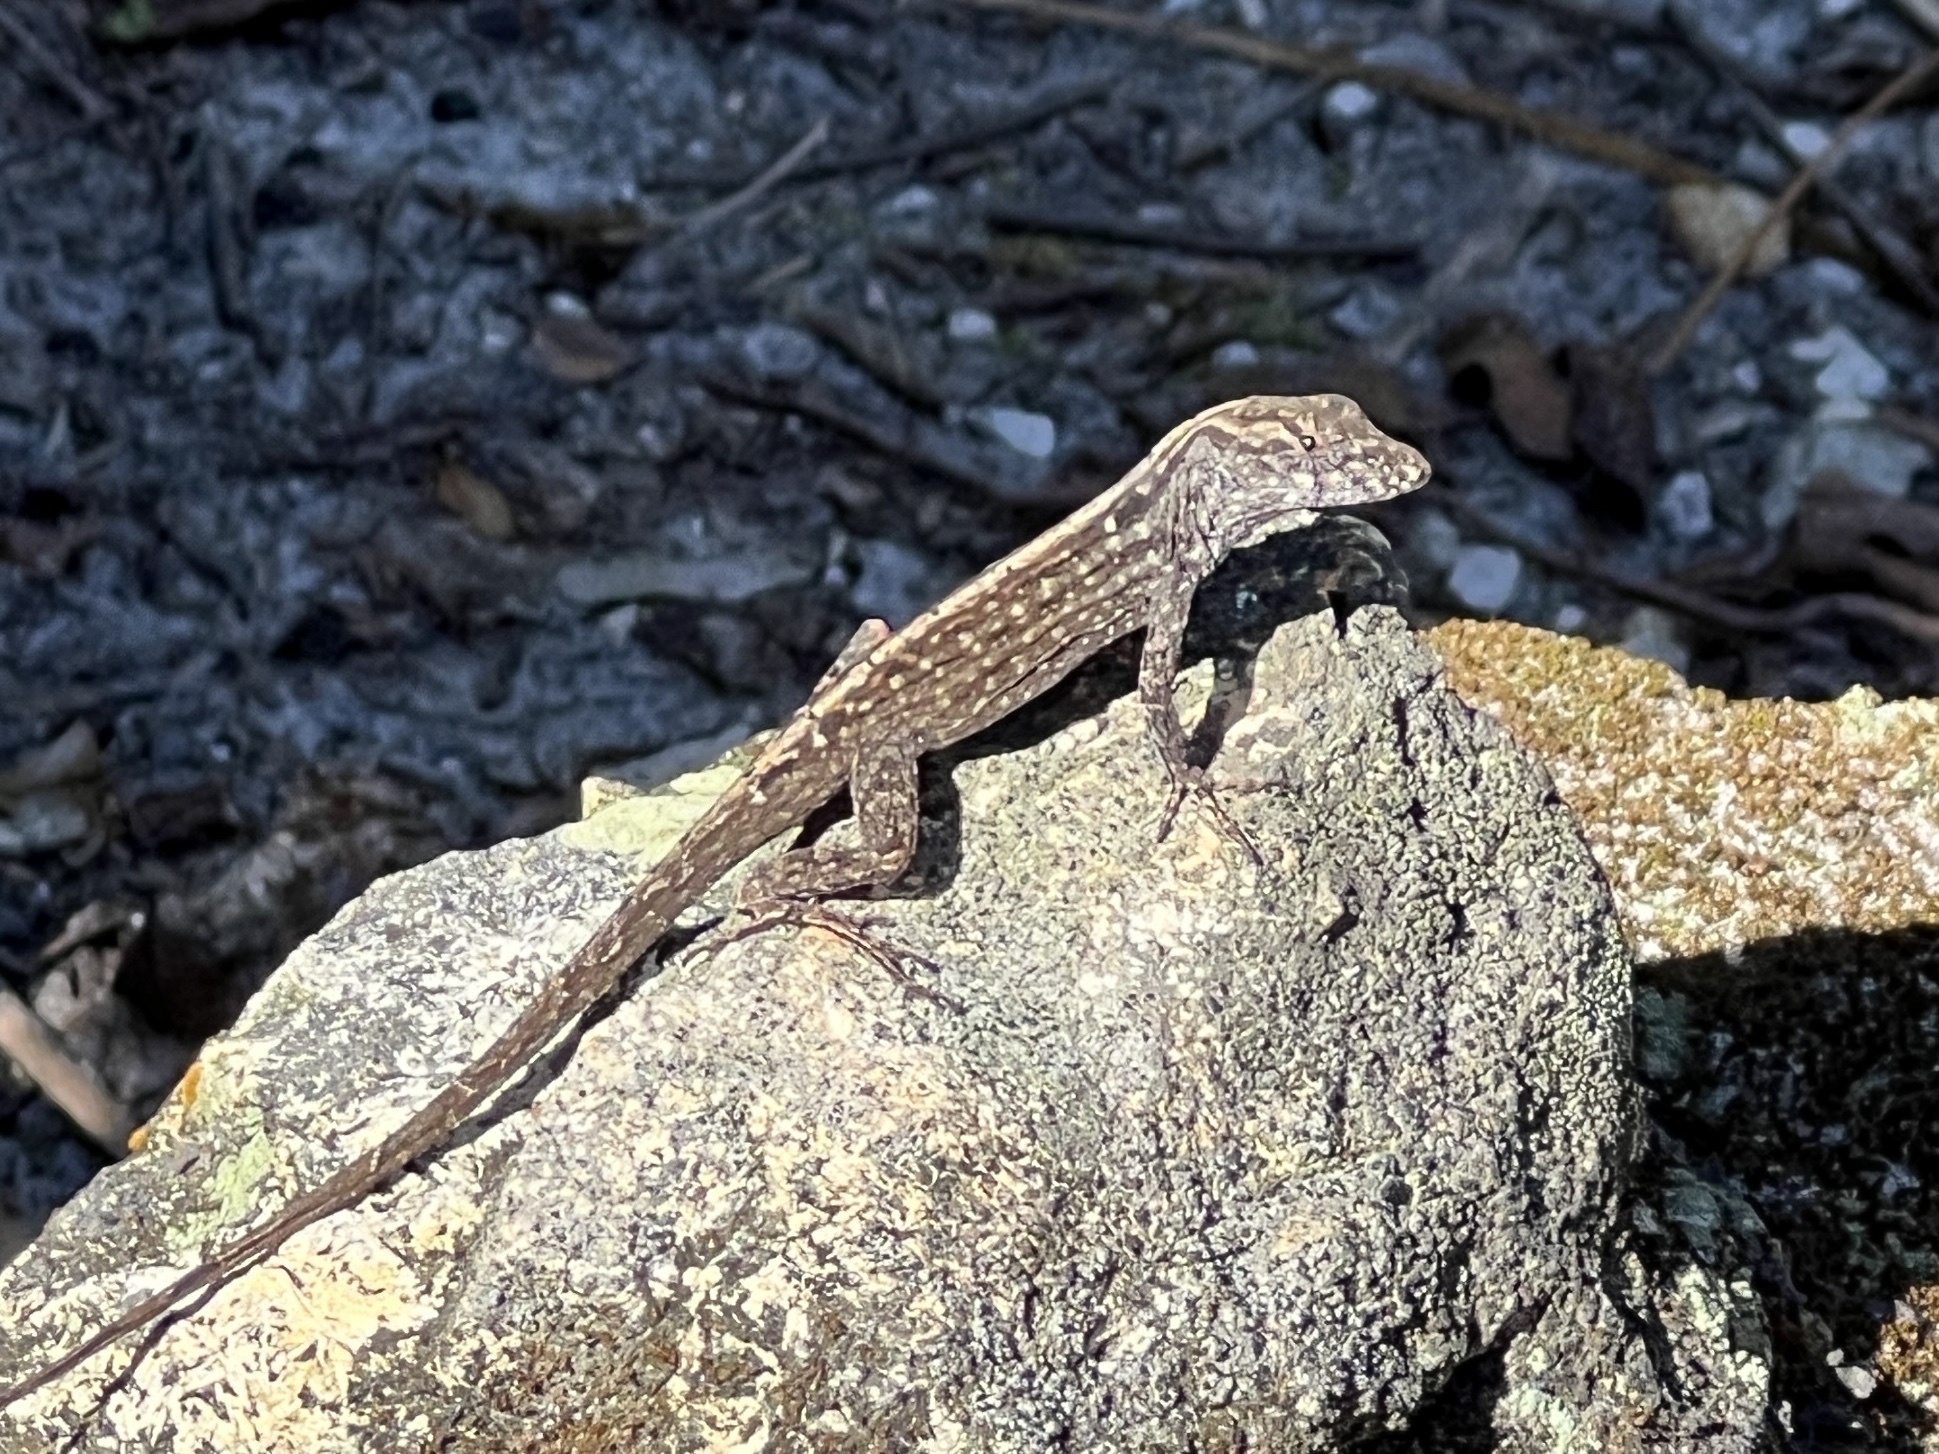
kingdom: Animalia
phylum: Chordata
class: Squamata
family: Dactyloidae
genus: Anolis
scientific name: Anolis sagrei
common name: Brown anole
